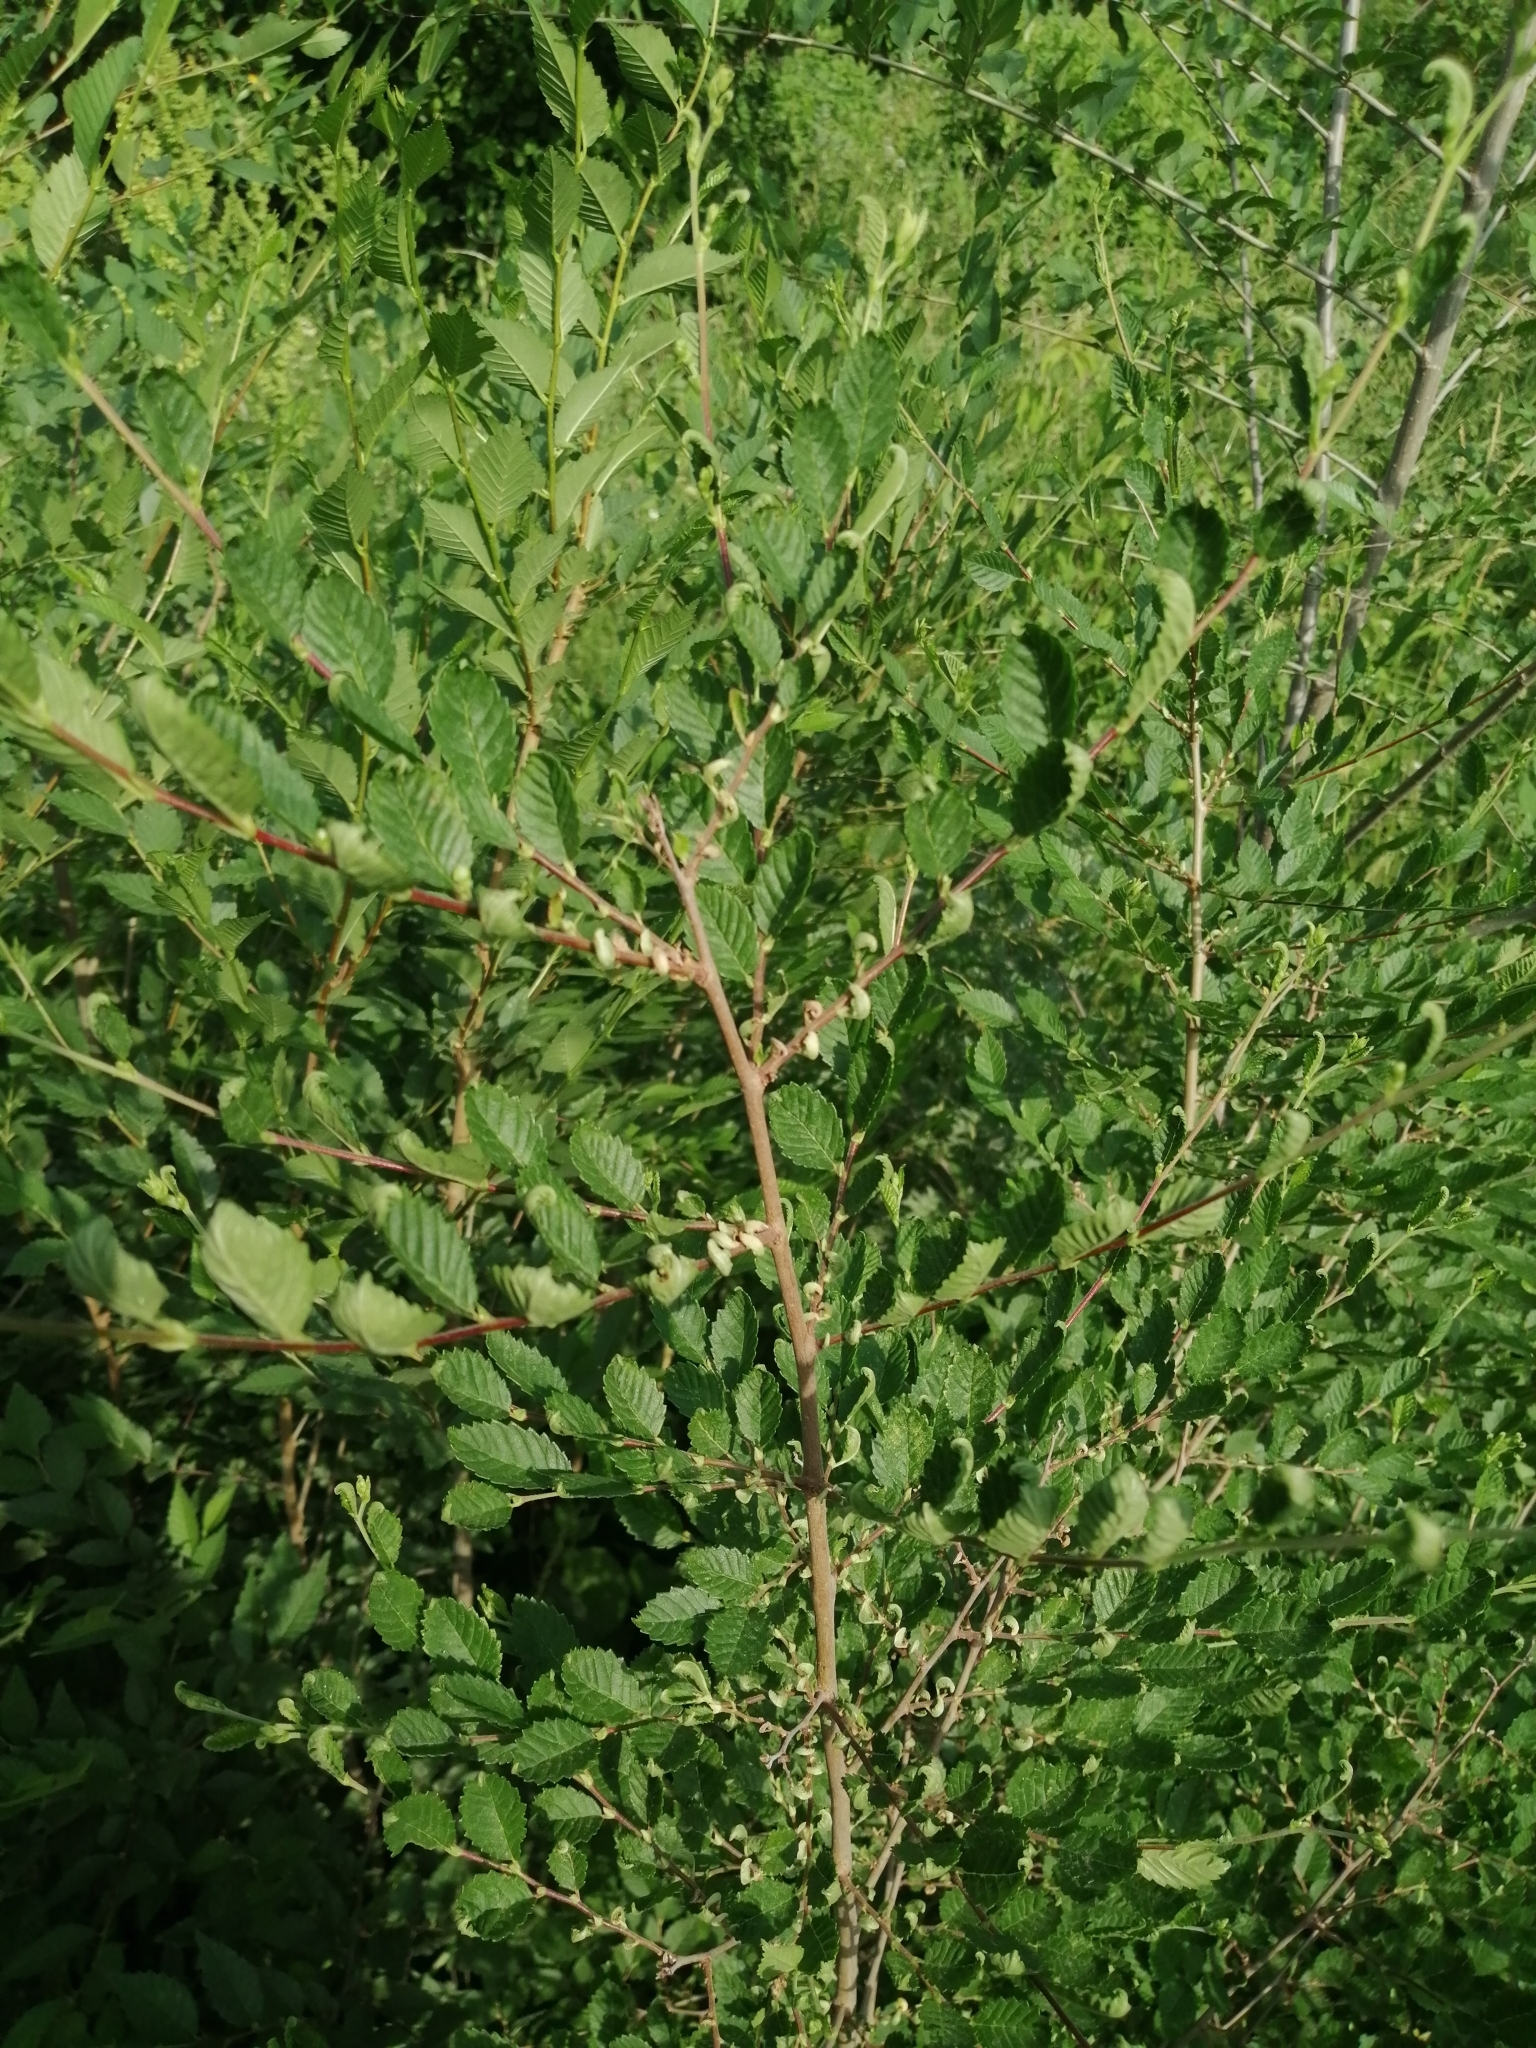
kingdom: Plantae
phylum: Tracheophyta
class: Magnoliopsida
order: Rosales
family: Ulmaceae
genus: Ulmus
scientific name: Ulmus pumila
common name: Siberian elm
